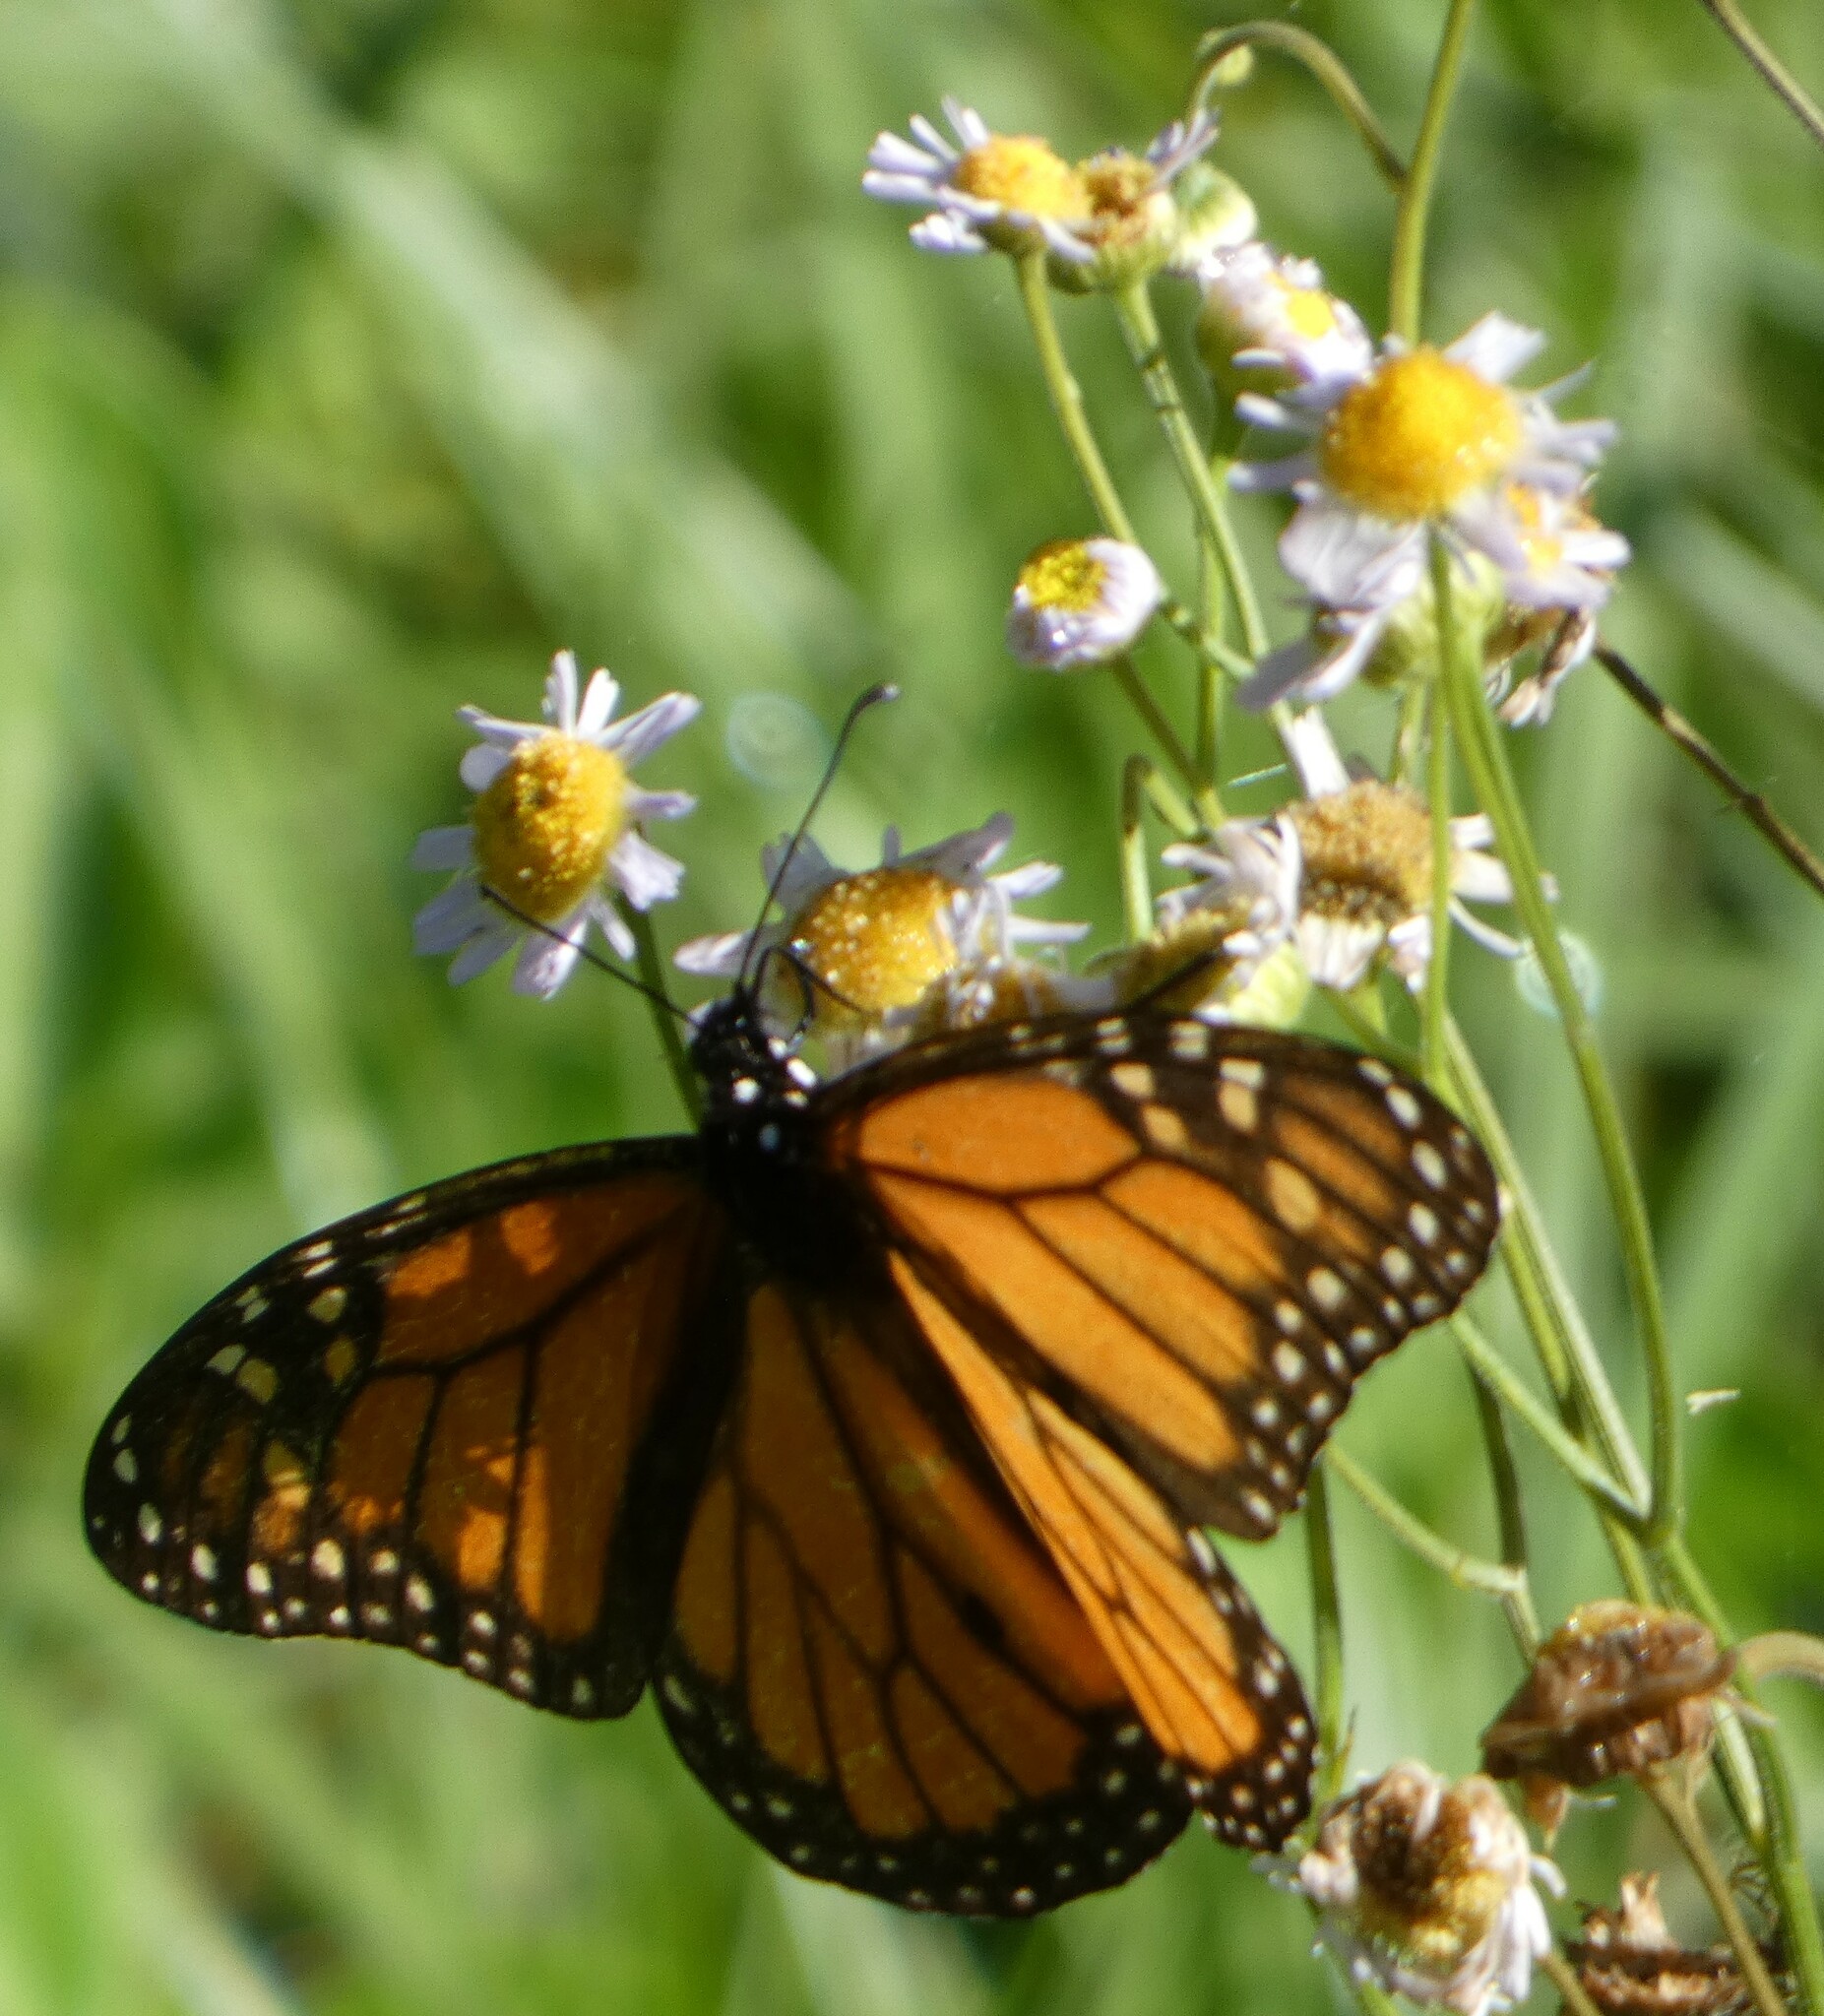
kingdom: Animalia
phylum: Arthropoda
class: Insecta
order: Lepidoptera
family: Nymphalidae
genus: Danaus
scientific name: Danaus plexippus
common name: Monarch
